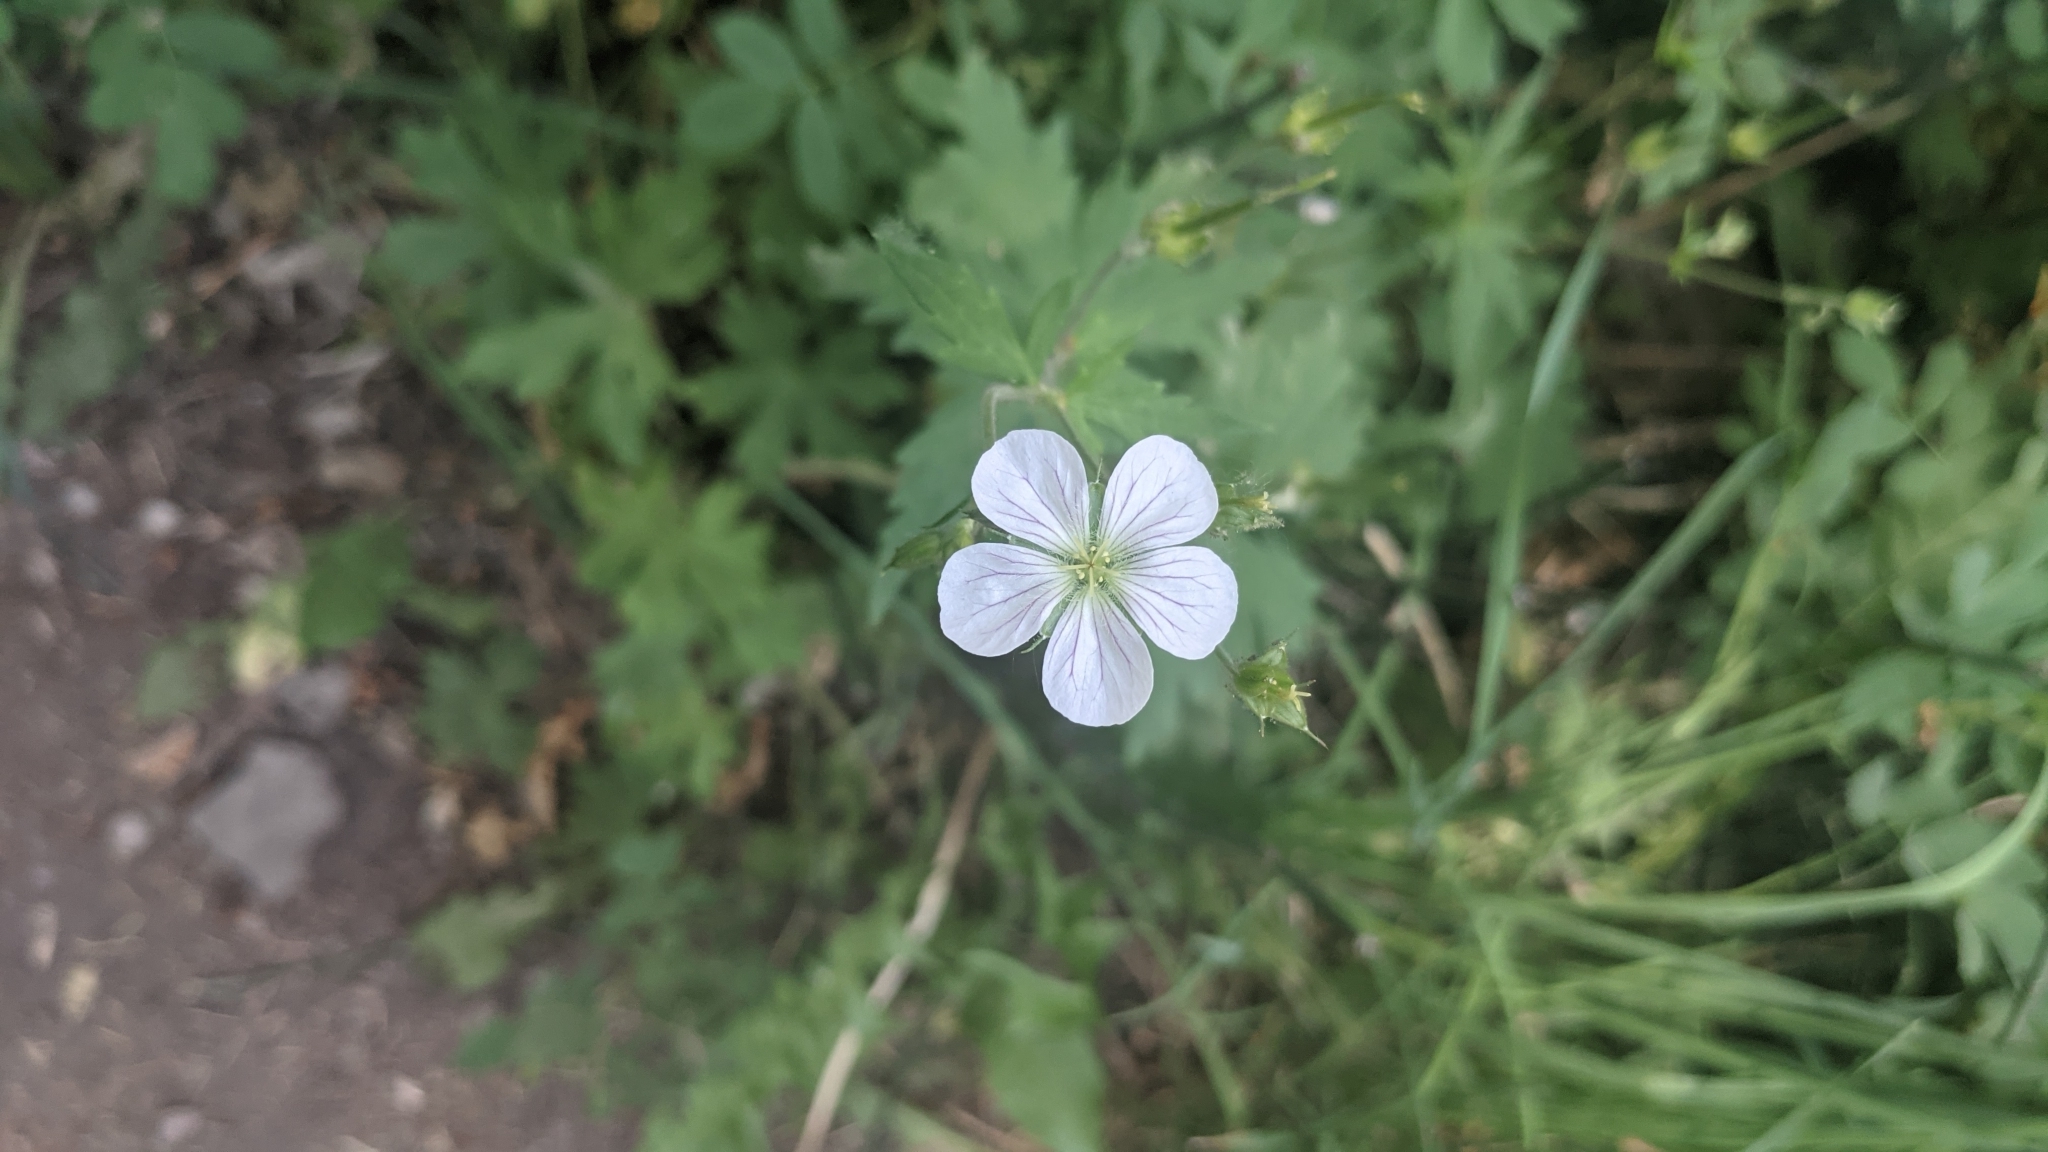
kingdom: Plantae
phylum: Tracheophyta
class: Magnoliopsida
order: Geraniales
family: Geraniaceae
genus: Geranium
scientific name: Geranium richardsonii
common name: Richardson's crane's-bill
